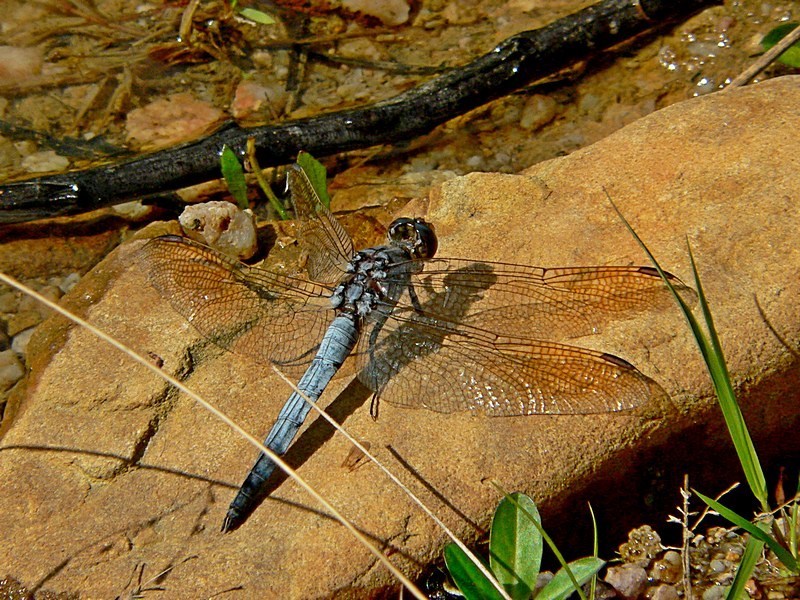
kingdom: Animalia
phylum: Arthropoda
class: Insecta
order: Odonata
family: Libellulidae
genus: Orthetrum
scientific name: Orthetrum caledonicum
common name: Blue skimmer
